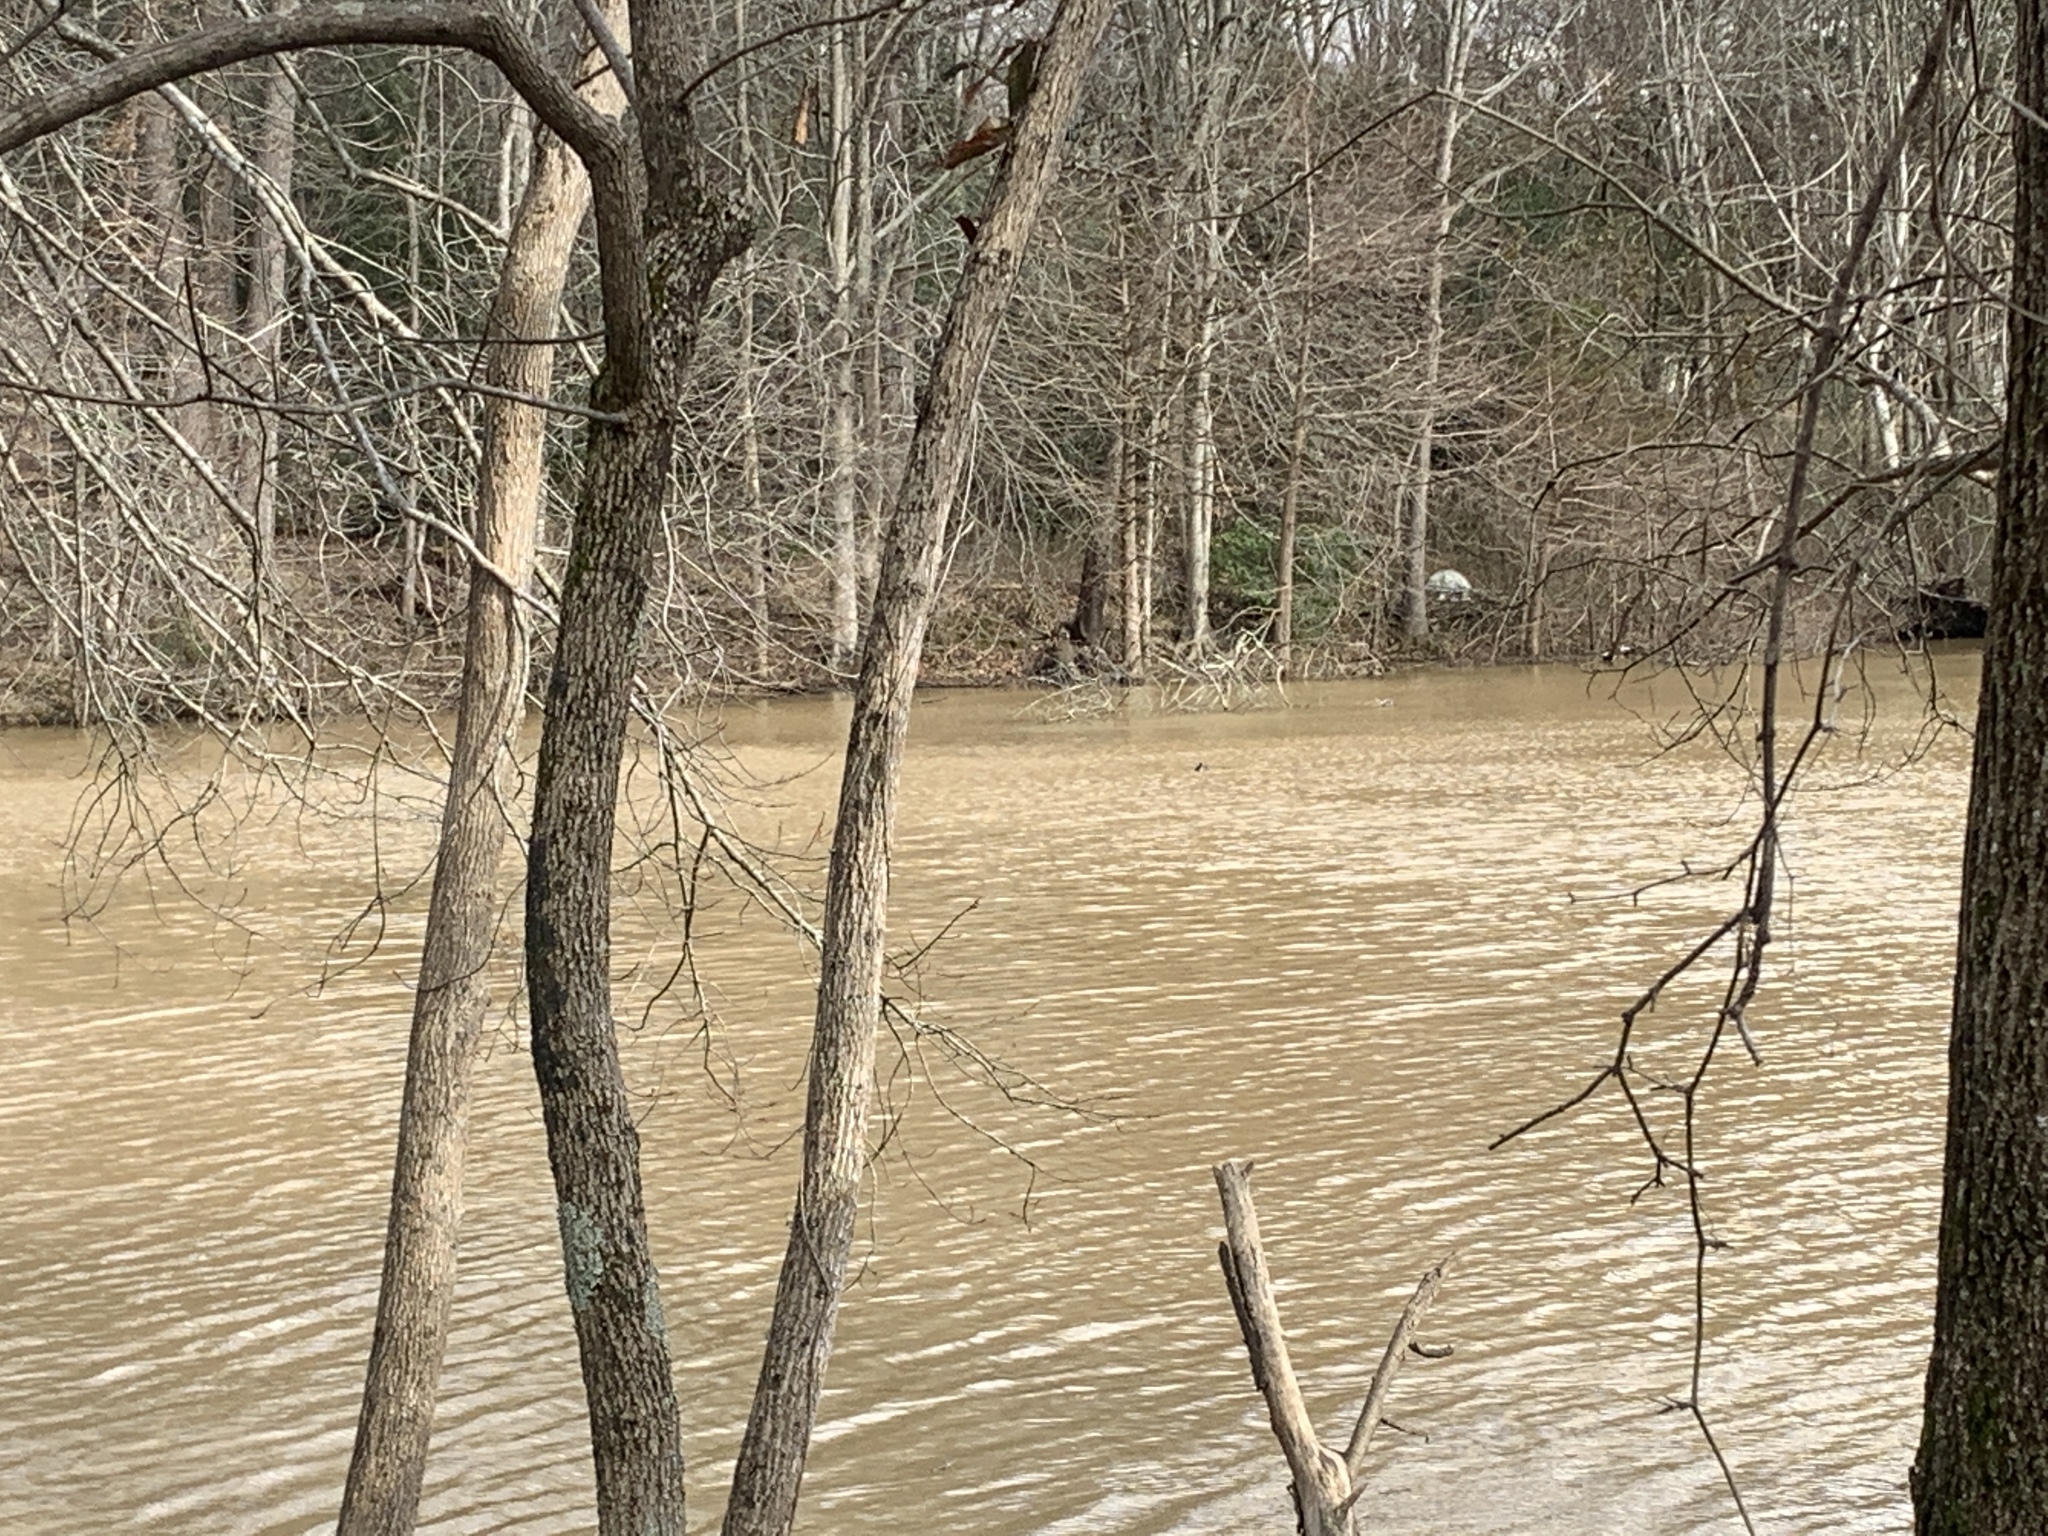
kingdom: Animalia
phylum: Chordata
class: Aves
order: Gruiformes
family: Rallidae
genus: Fulica
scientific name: Fulica americana
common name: American coot
